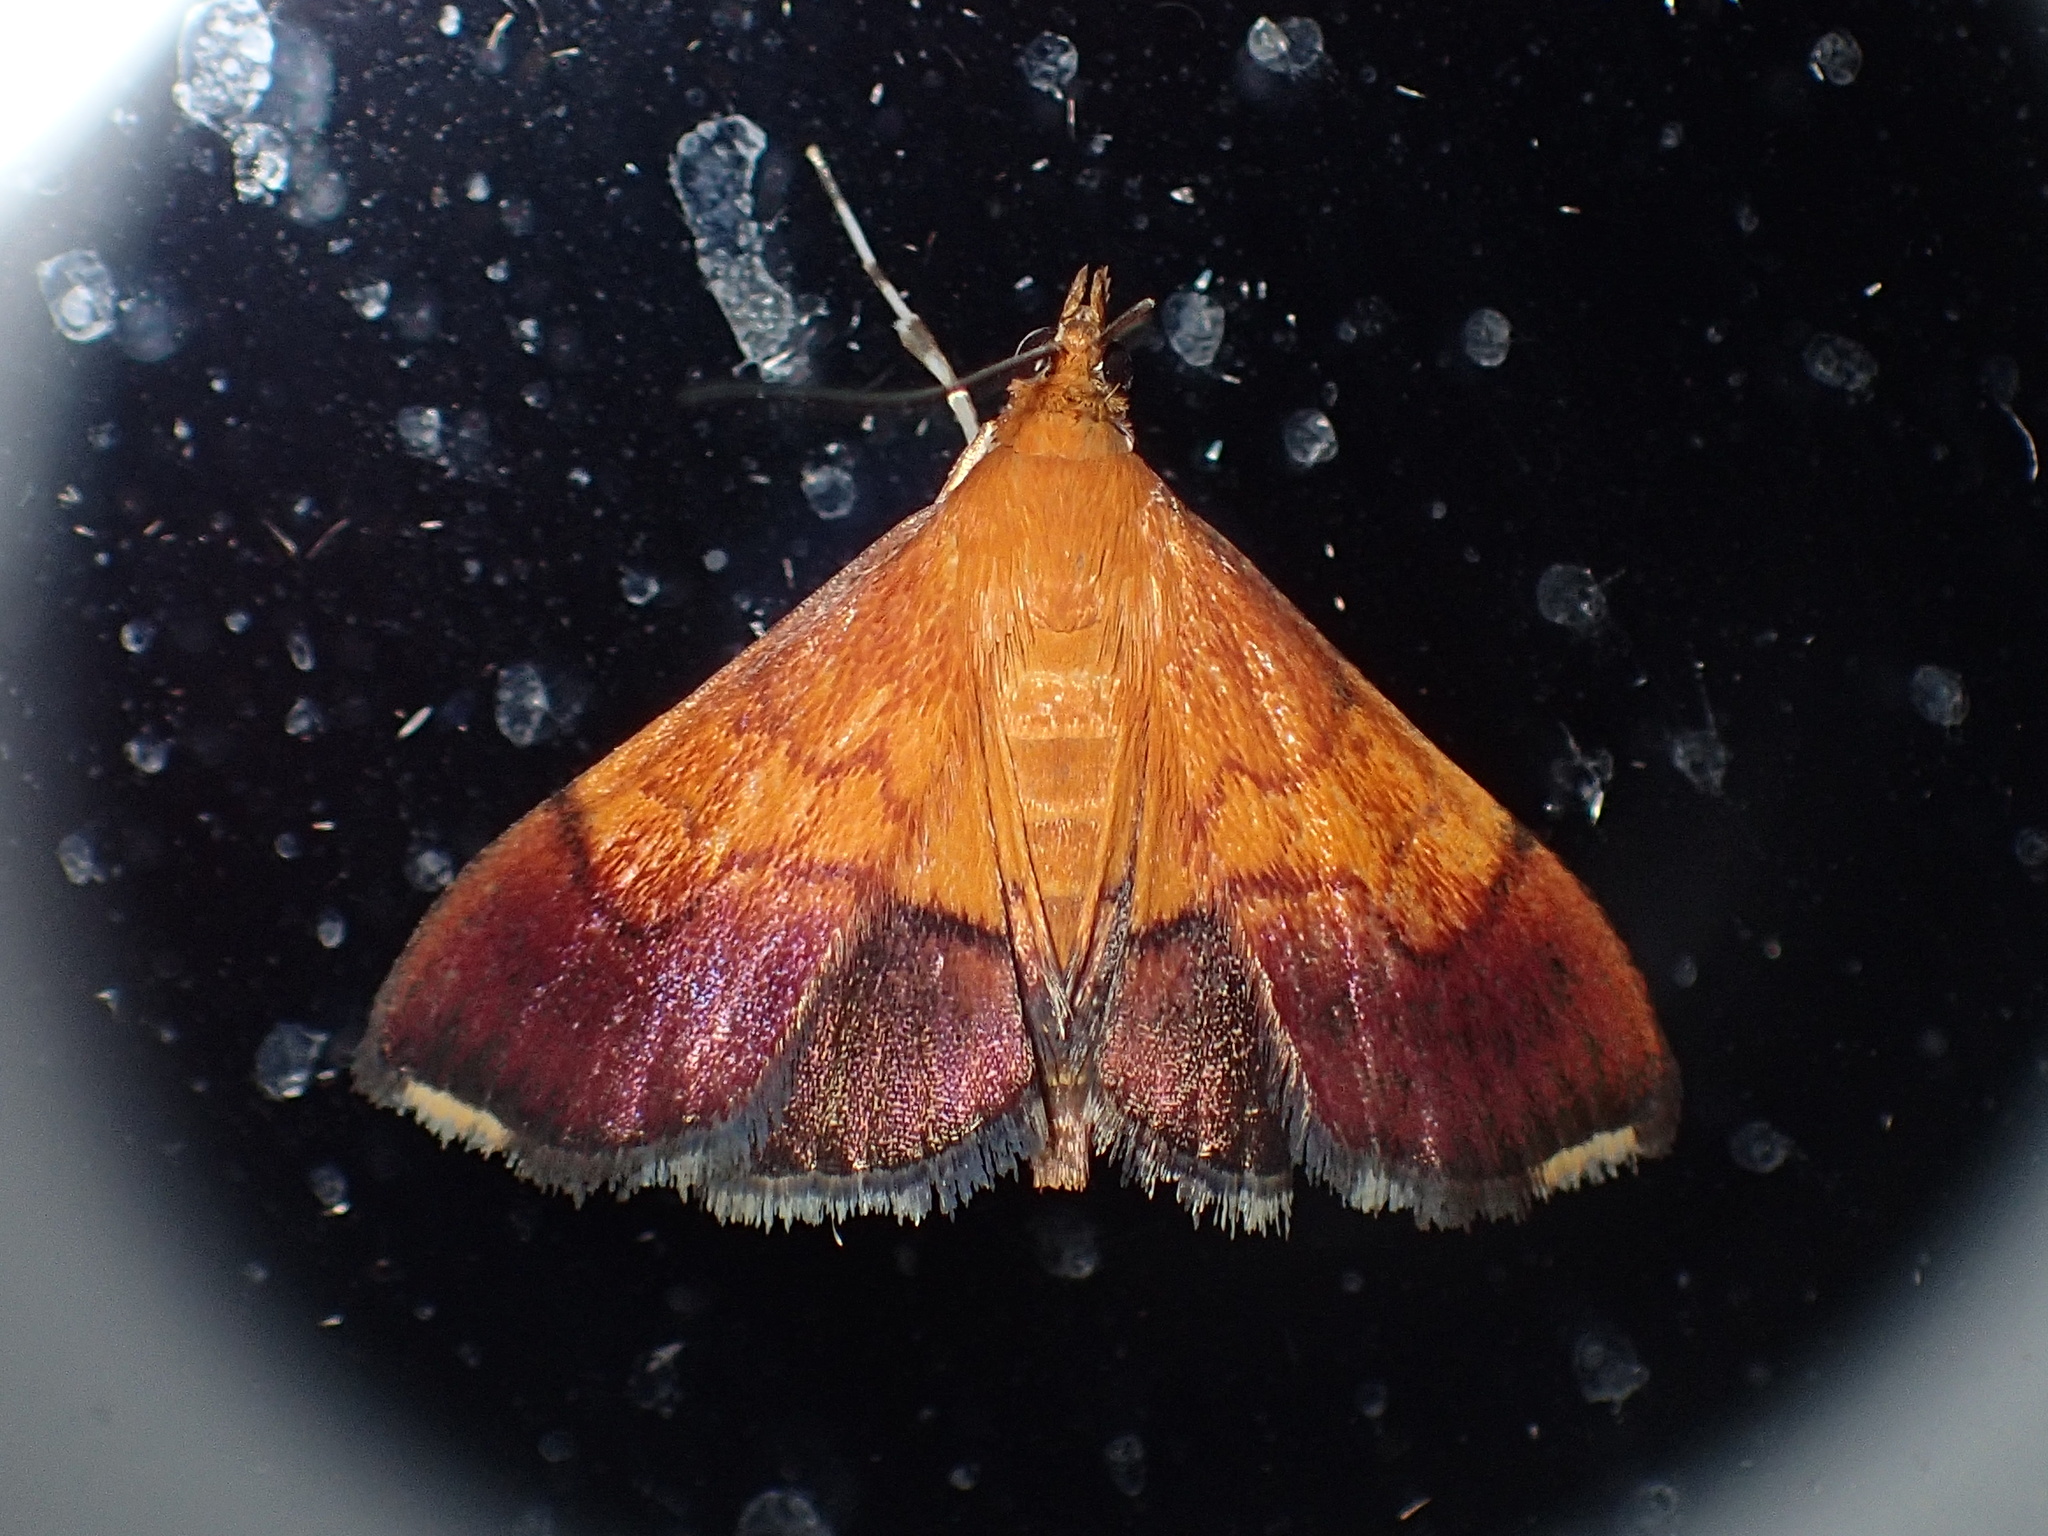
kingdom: Animalia
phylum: Arthropoda
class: Insecta
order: Lepidoptera
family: Crambidae
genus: Pyrausta
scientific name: Pyrausta bicoloralis
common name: Bicolored pyrausta moth
